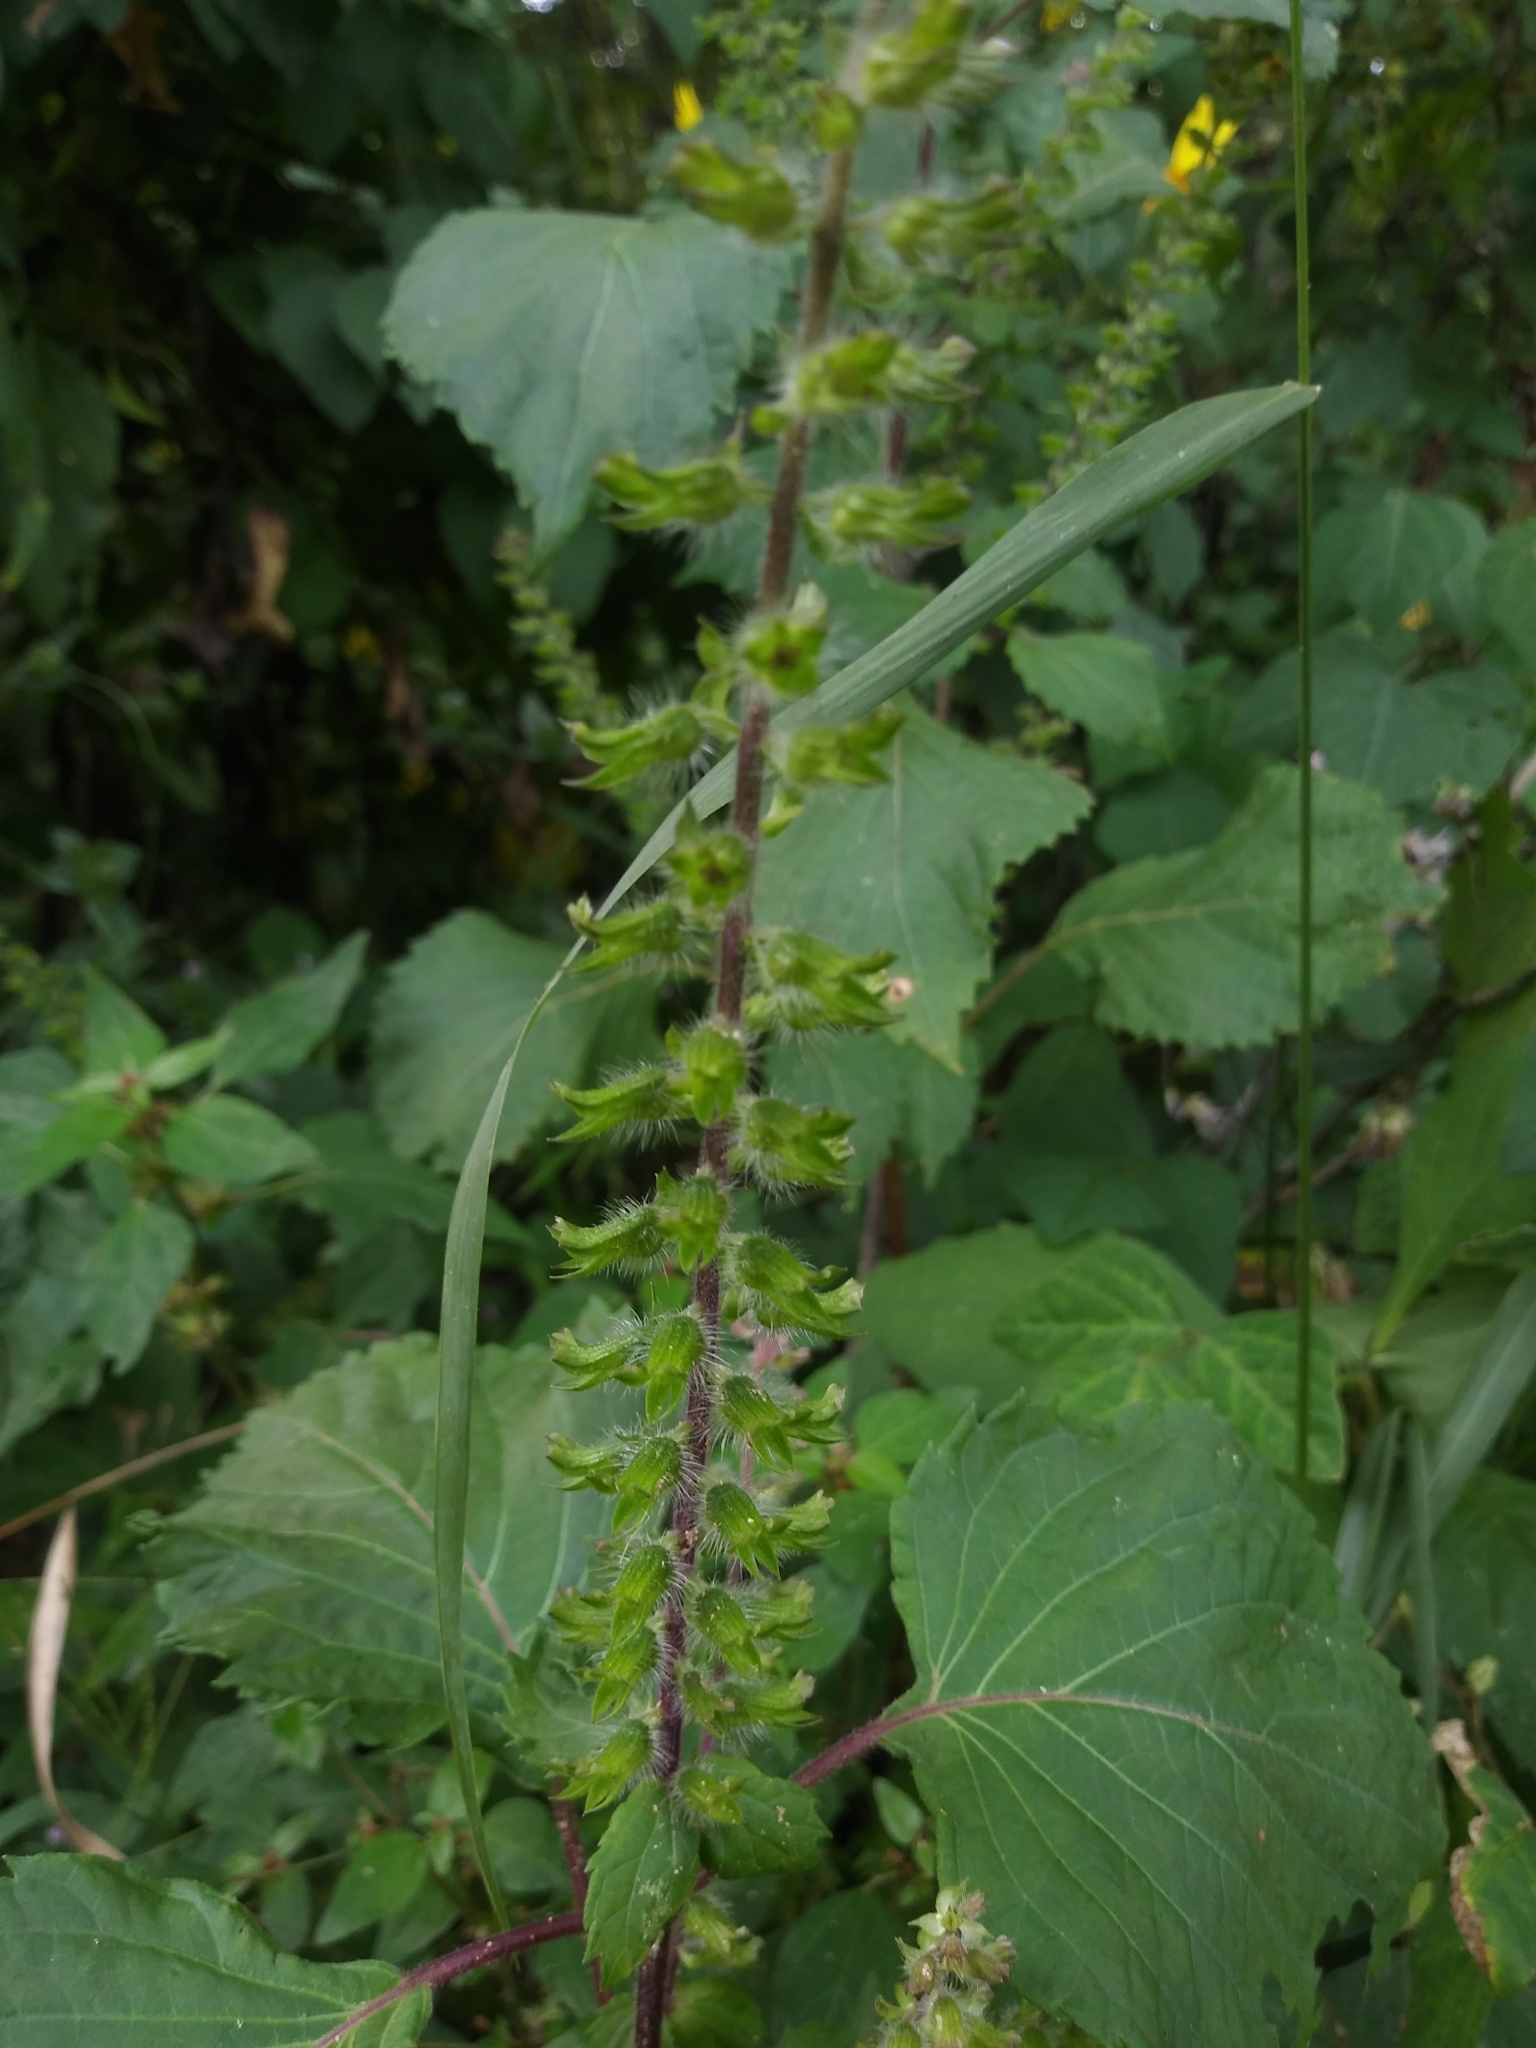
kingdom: Plantae
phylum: Tracheophyta
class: Magnoliopsida
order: Lamiales
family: Lamiaceae
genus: Perilla
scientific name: Perilla frutescens
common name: Perilla
